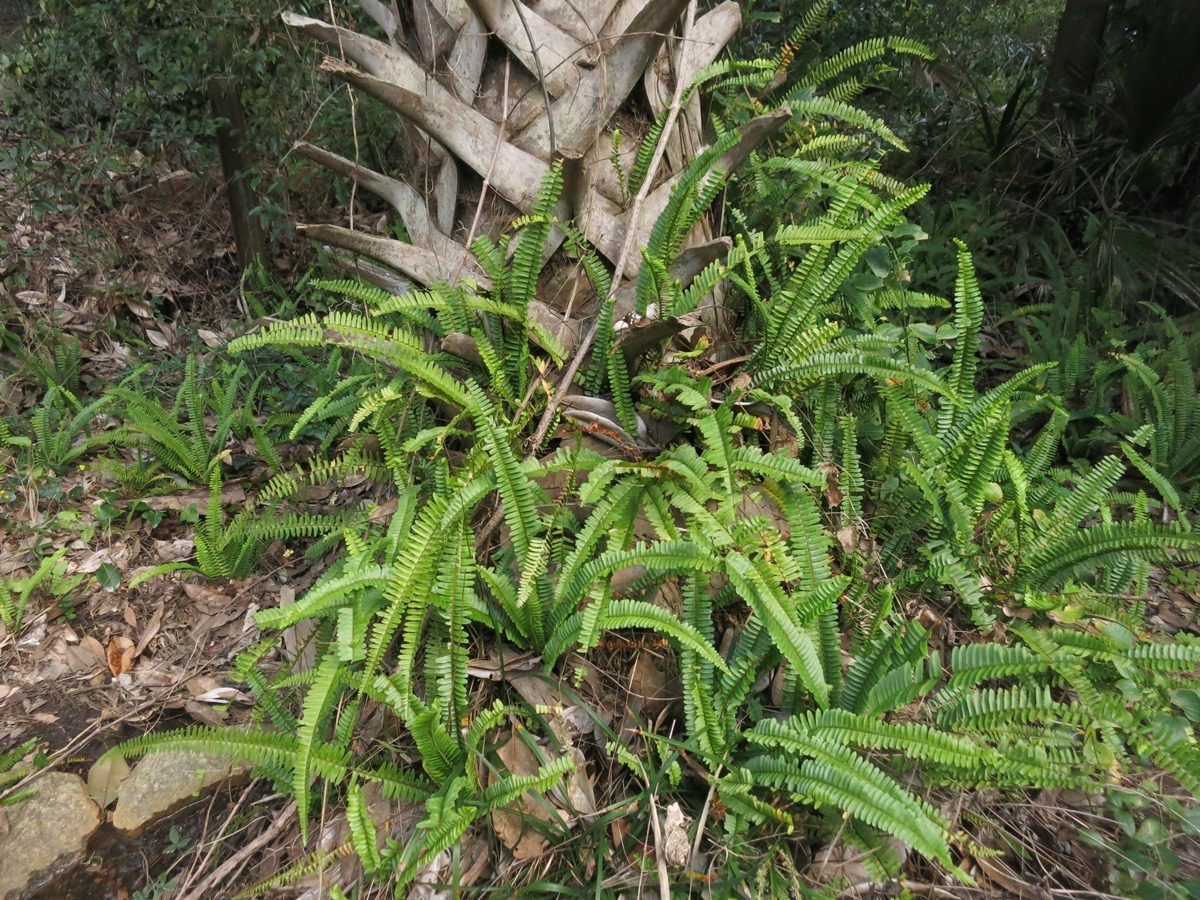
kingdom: Plantae
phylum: Tracheophyta
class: Polypodiopsida
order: Polypodiales
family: Nephrolepidaceae
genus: Nephrolepis
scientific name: Nephrolepis cordifolia
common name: Narrow swordfern
